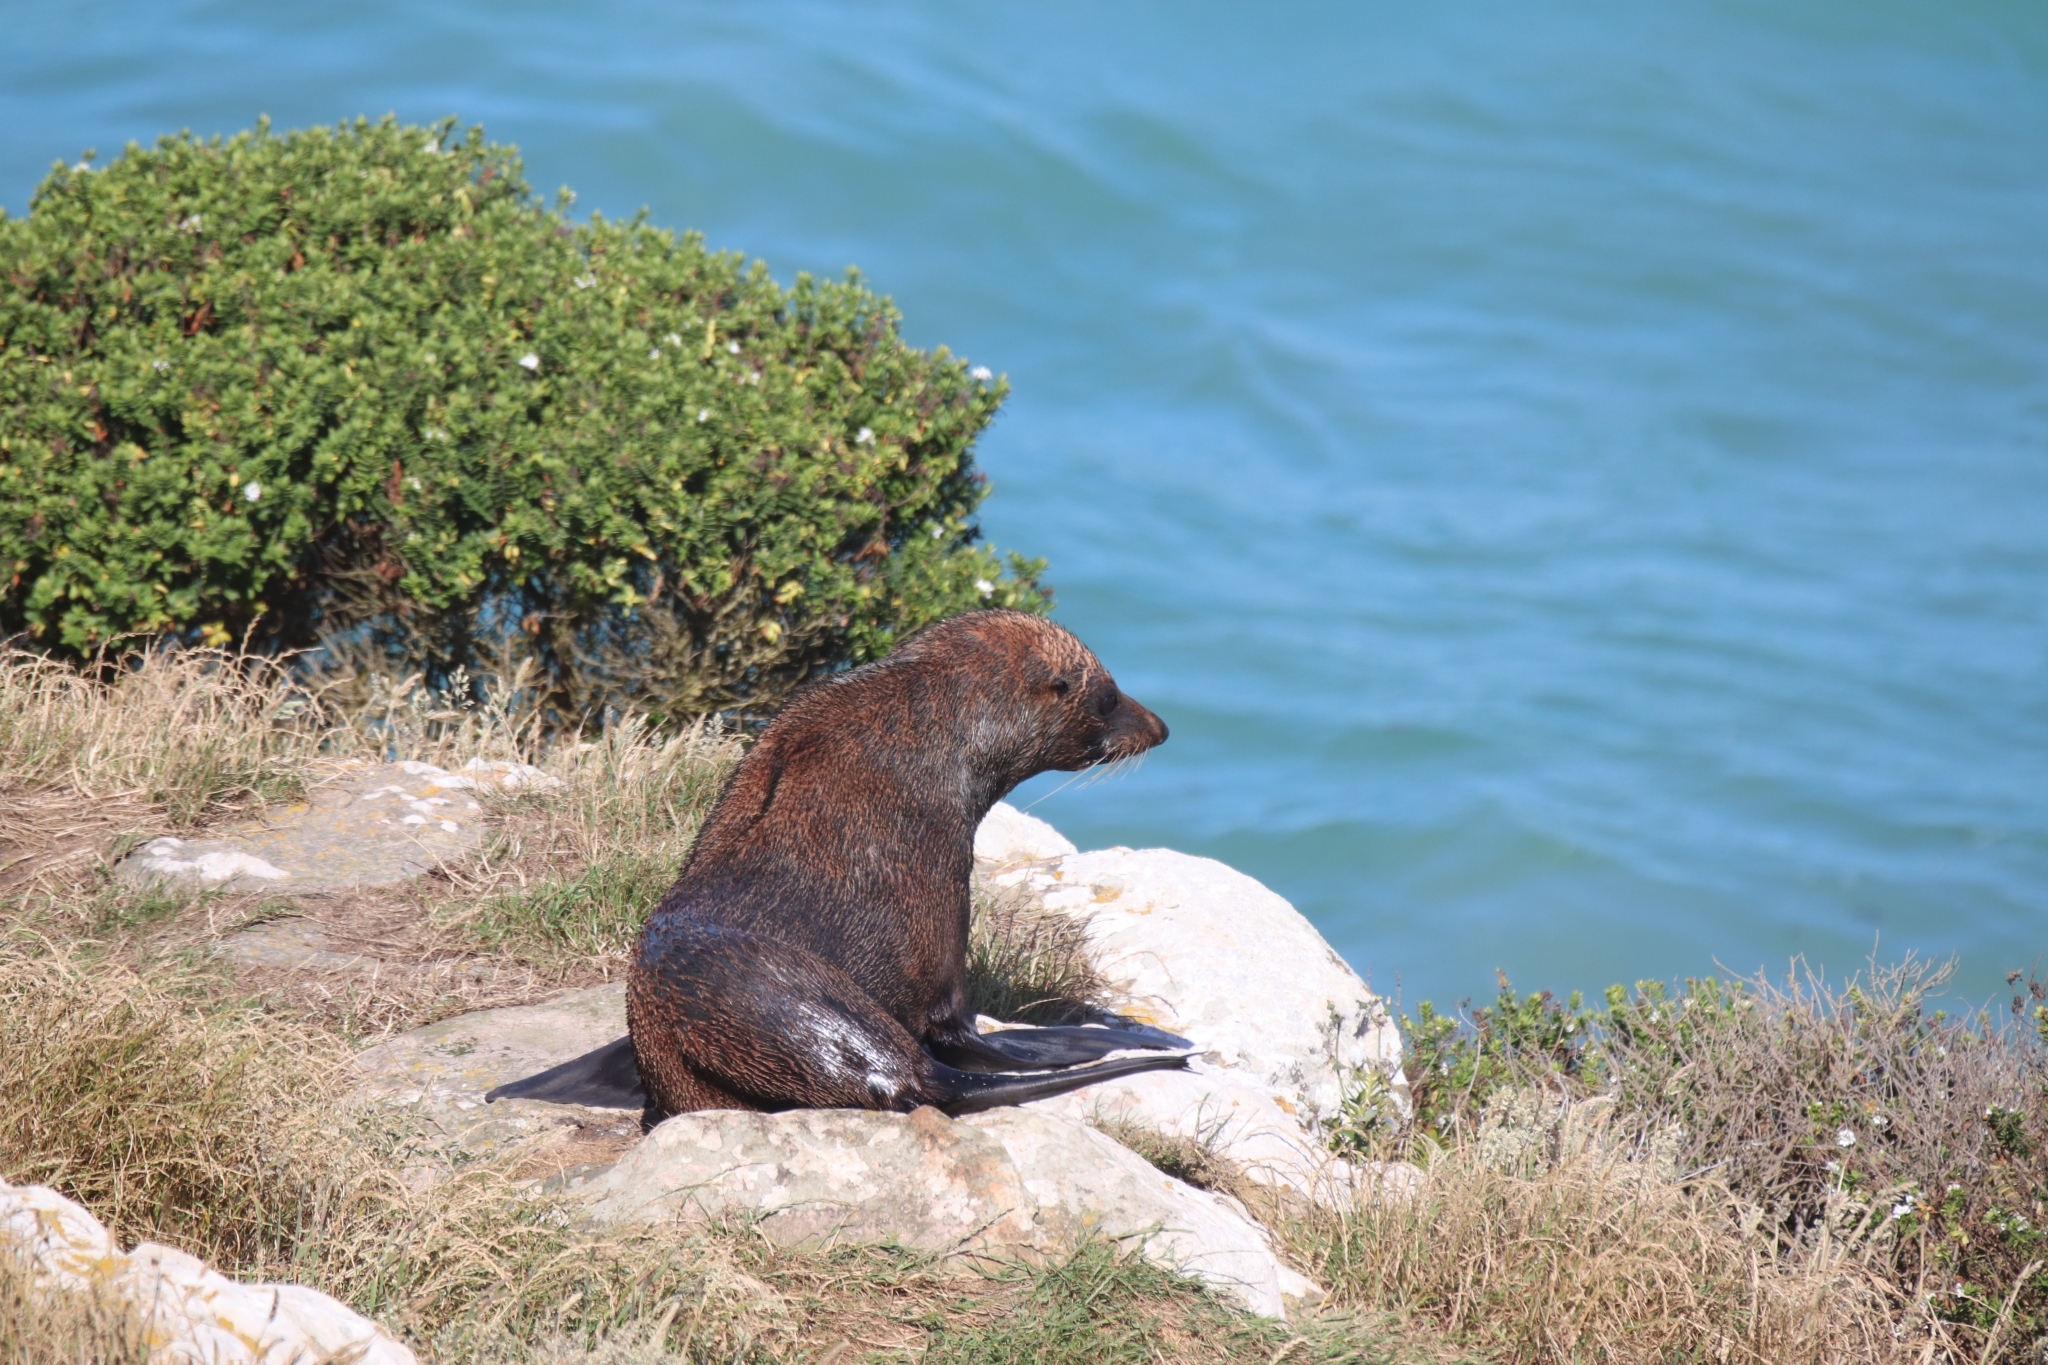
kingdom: Animalia
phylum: Chordata
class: Mammalia
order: Carnivora
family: Otariidae
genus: Arctocephalus
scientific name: Arctocephalus forsteri
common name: New zealand fur seal
